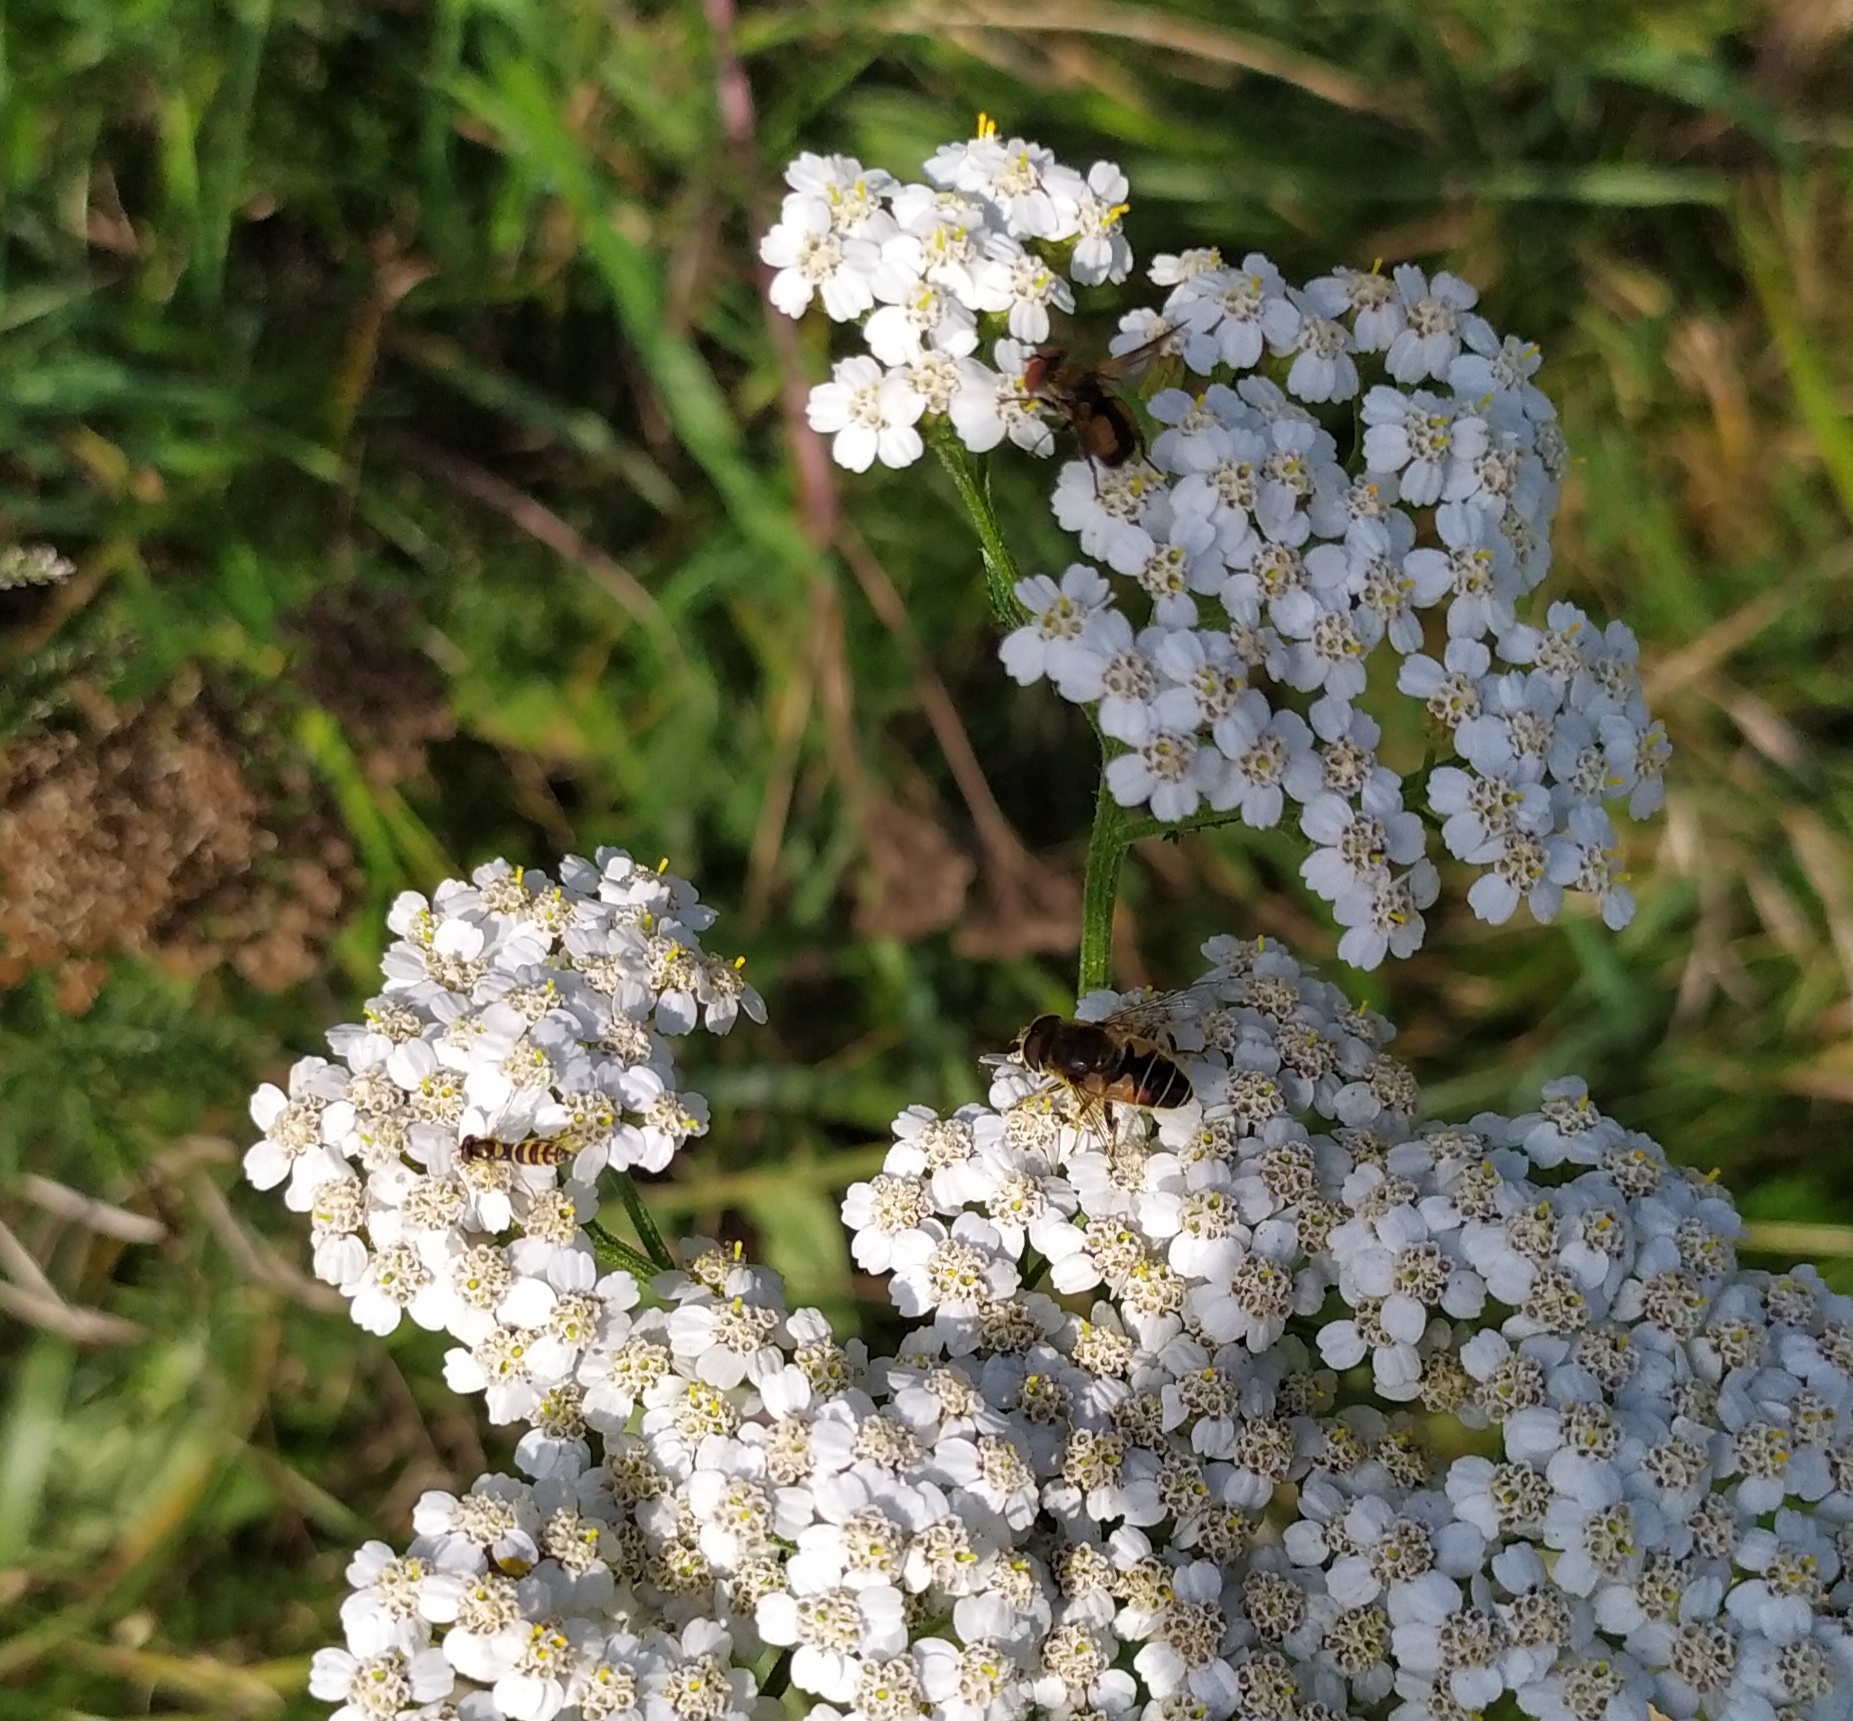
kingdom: Animalia
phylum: Arthropoda
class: Insecta
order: Diptera
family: Syrphidae
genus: Eristalis
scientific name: Eristalis nemorum
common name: Orange-spined drone fly
